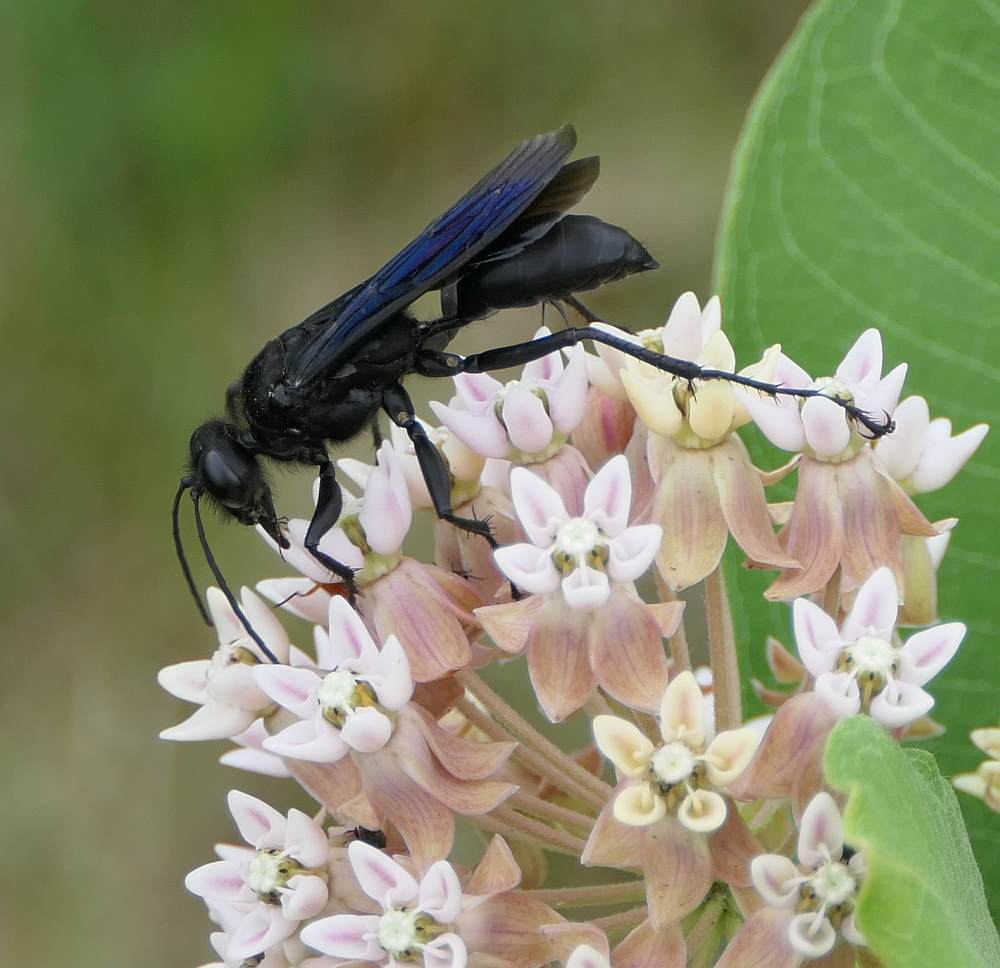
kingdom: Animalia
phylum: Arthropoda
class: Insecta
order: Hymenoptera
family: Sphecidae
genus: Sphex
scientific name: Sphex pensylvanicus
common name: Great black digger wasp
